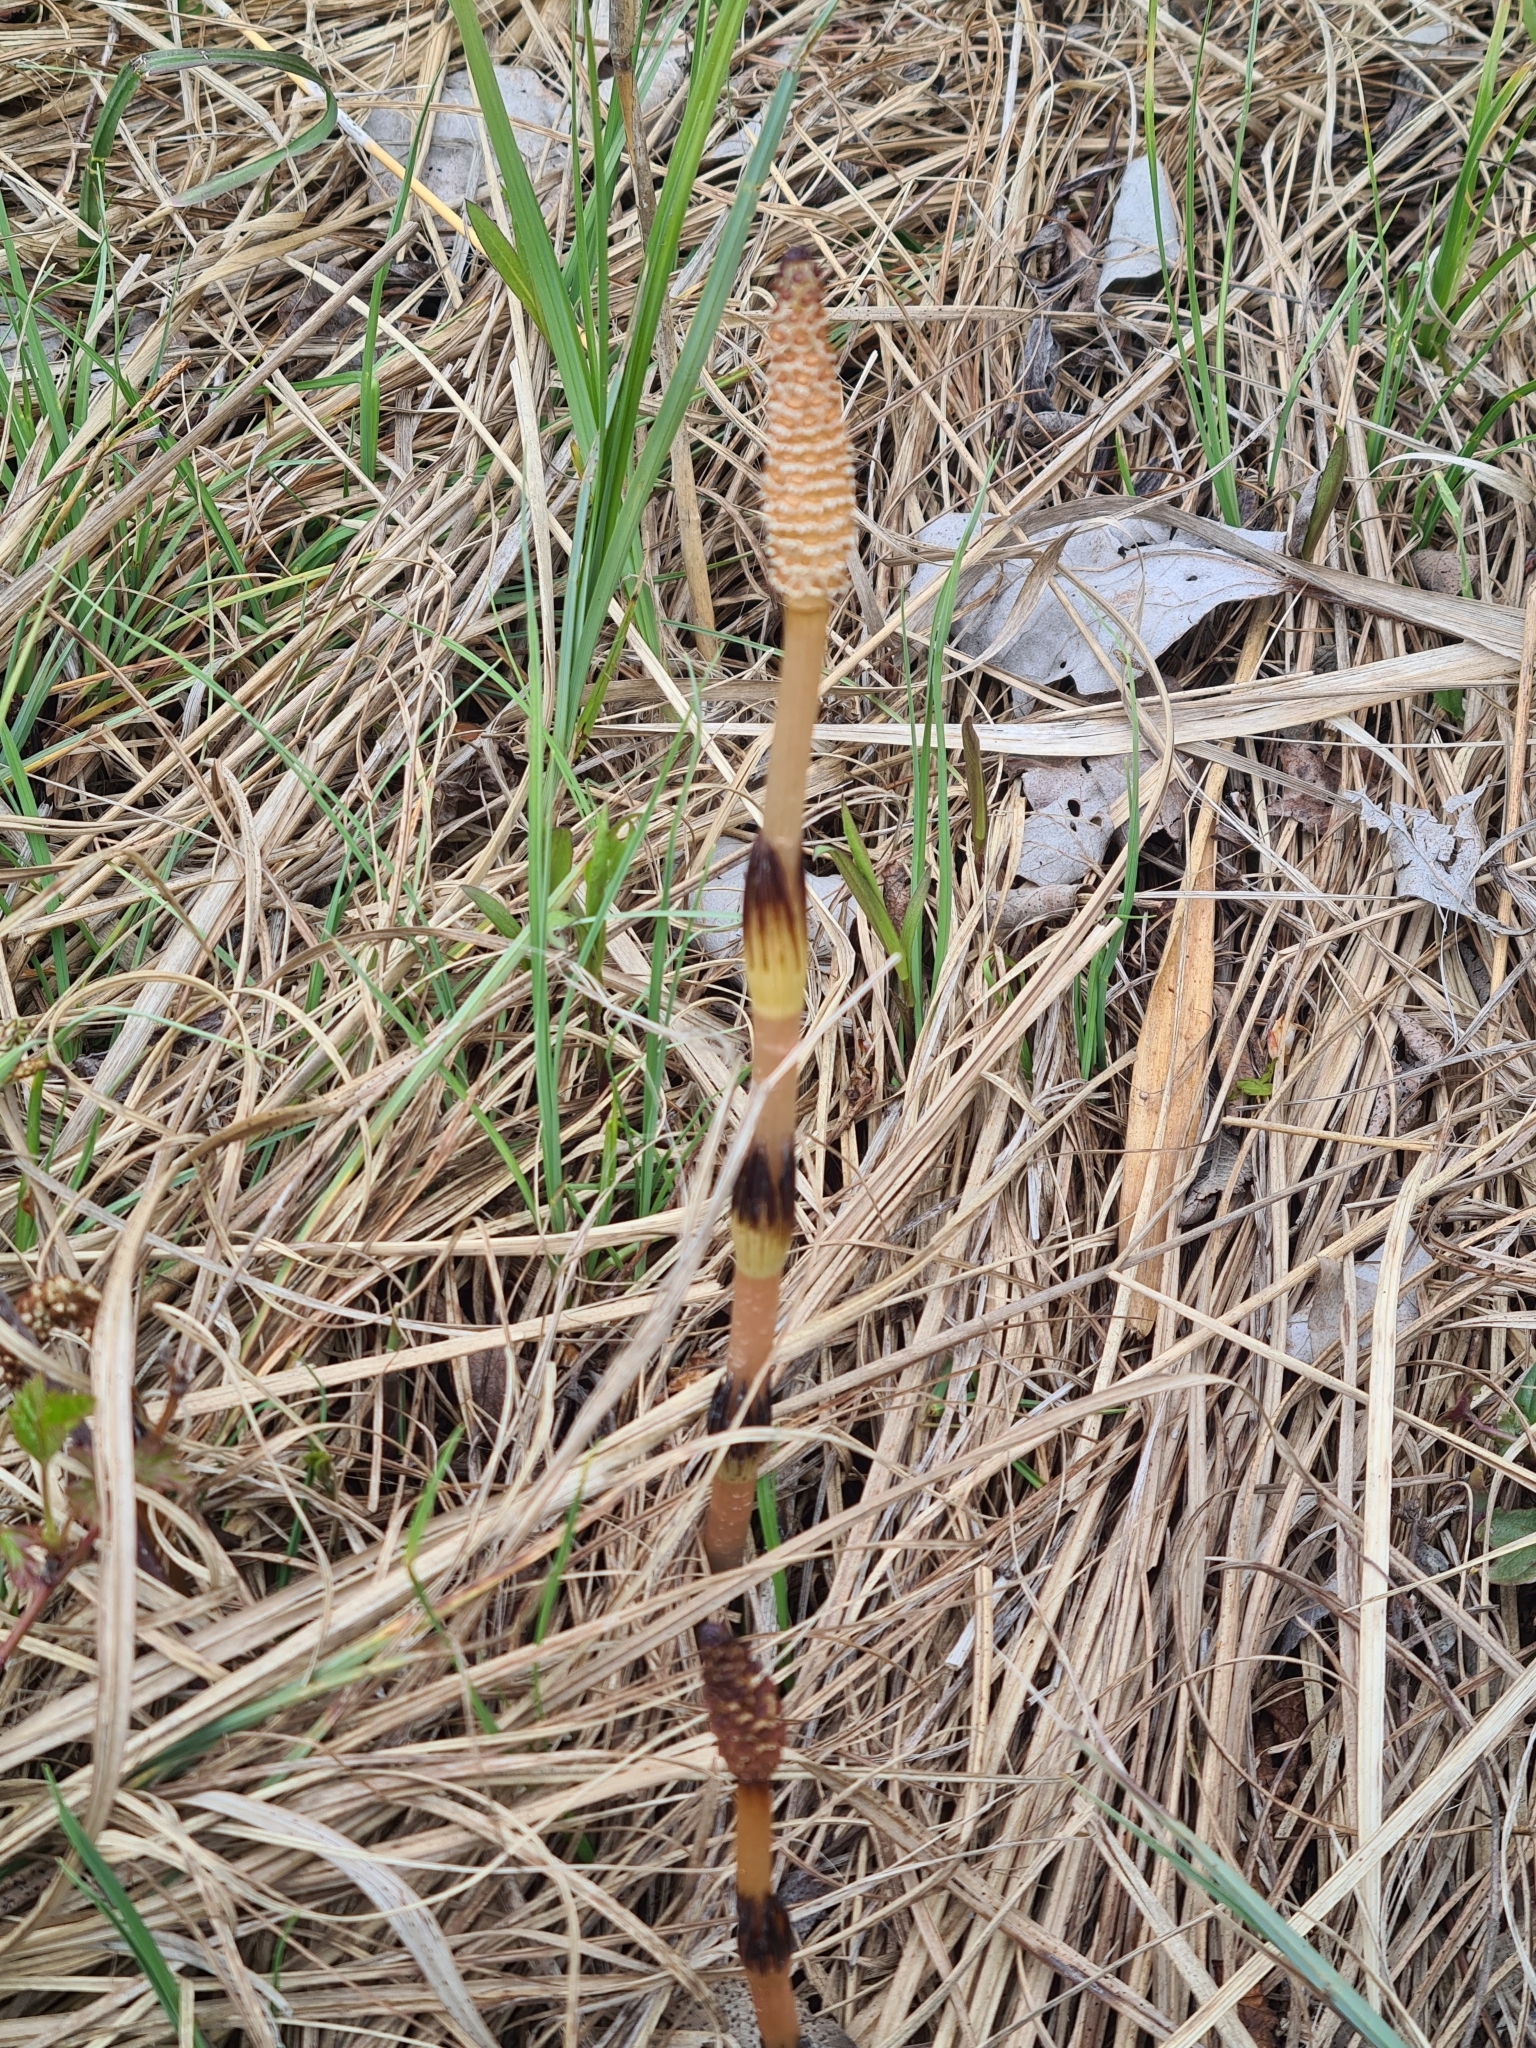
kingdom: Plantae
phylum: Tracheophyta
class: Polypodiopsida
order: Equisetales
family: Equisetaceae
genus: Equisetum
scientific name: Equisetum arvense
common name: Field horsetail
